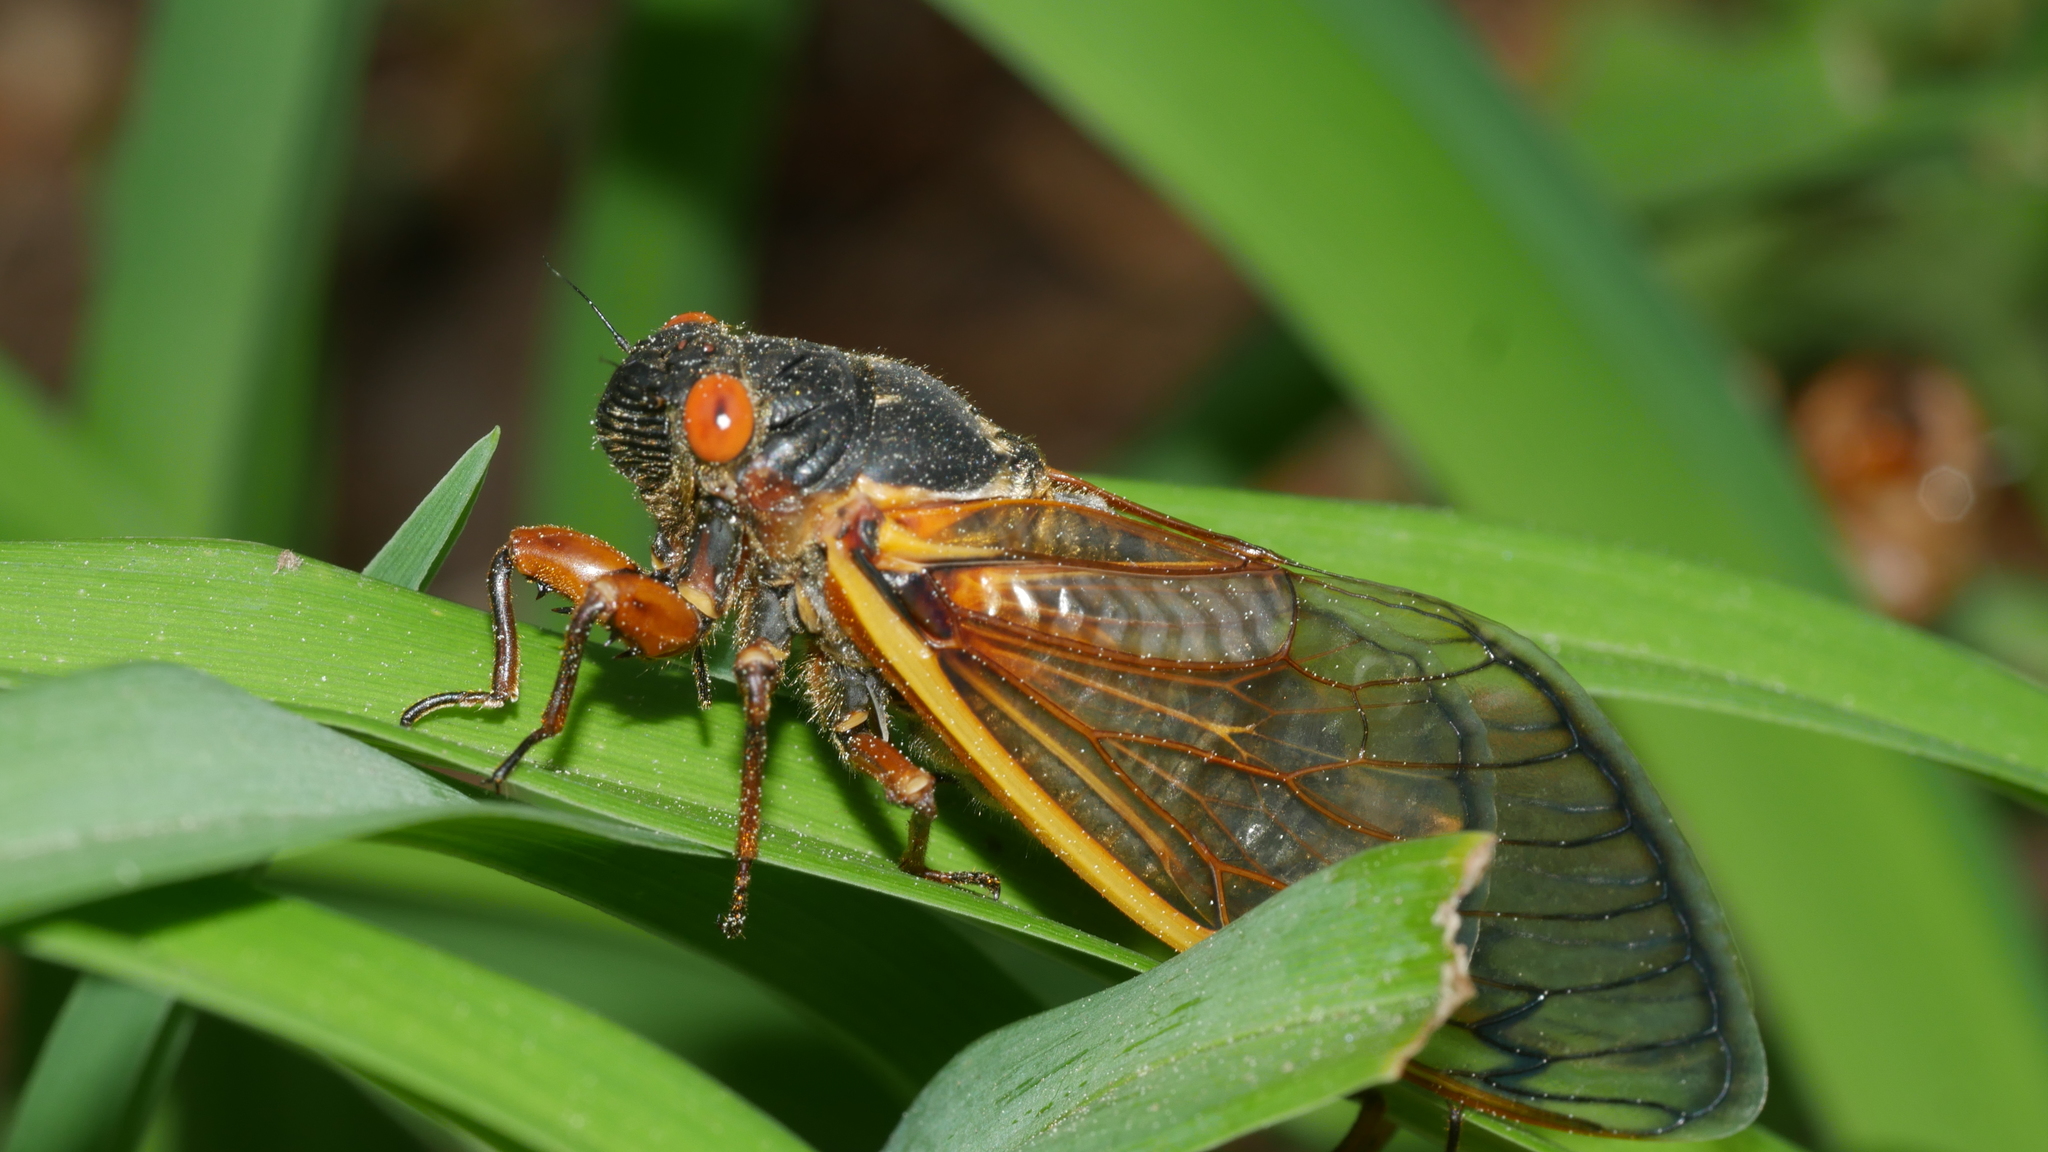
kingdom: Animalia
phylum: Arthropoda
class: Insecta
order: Hemiptera
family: Cicadidae
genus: Magicicada
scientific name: Magicicada septendecim
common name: Periodical cicada
